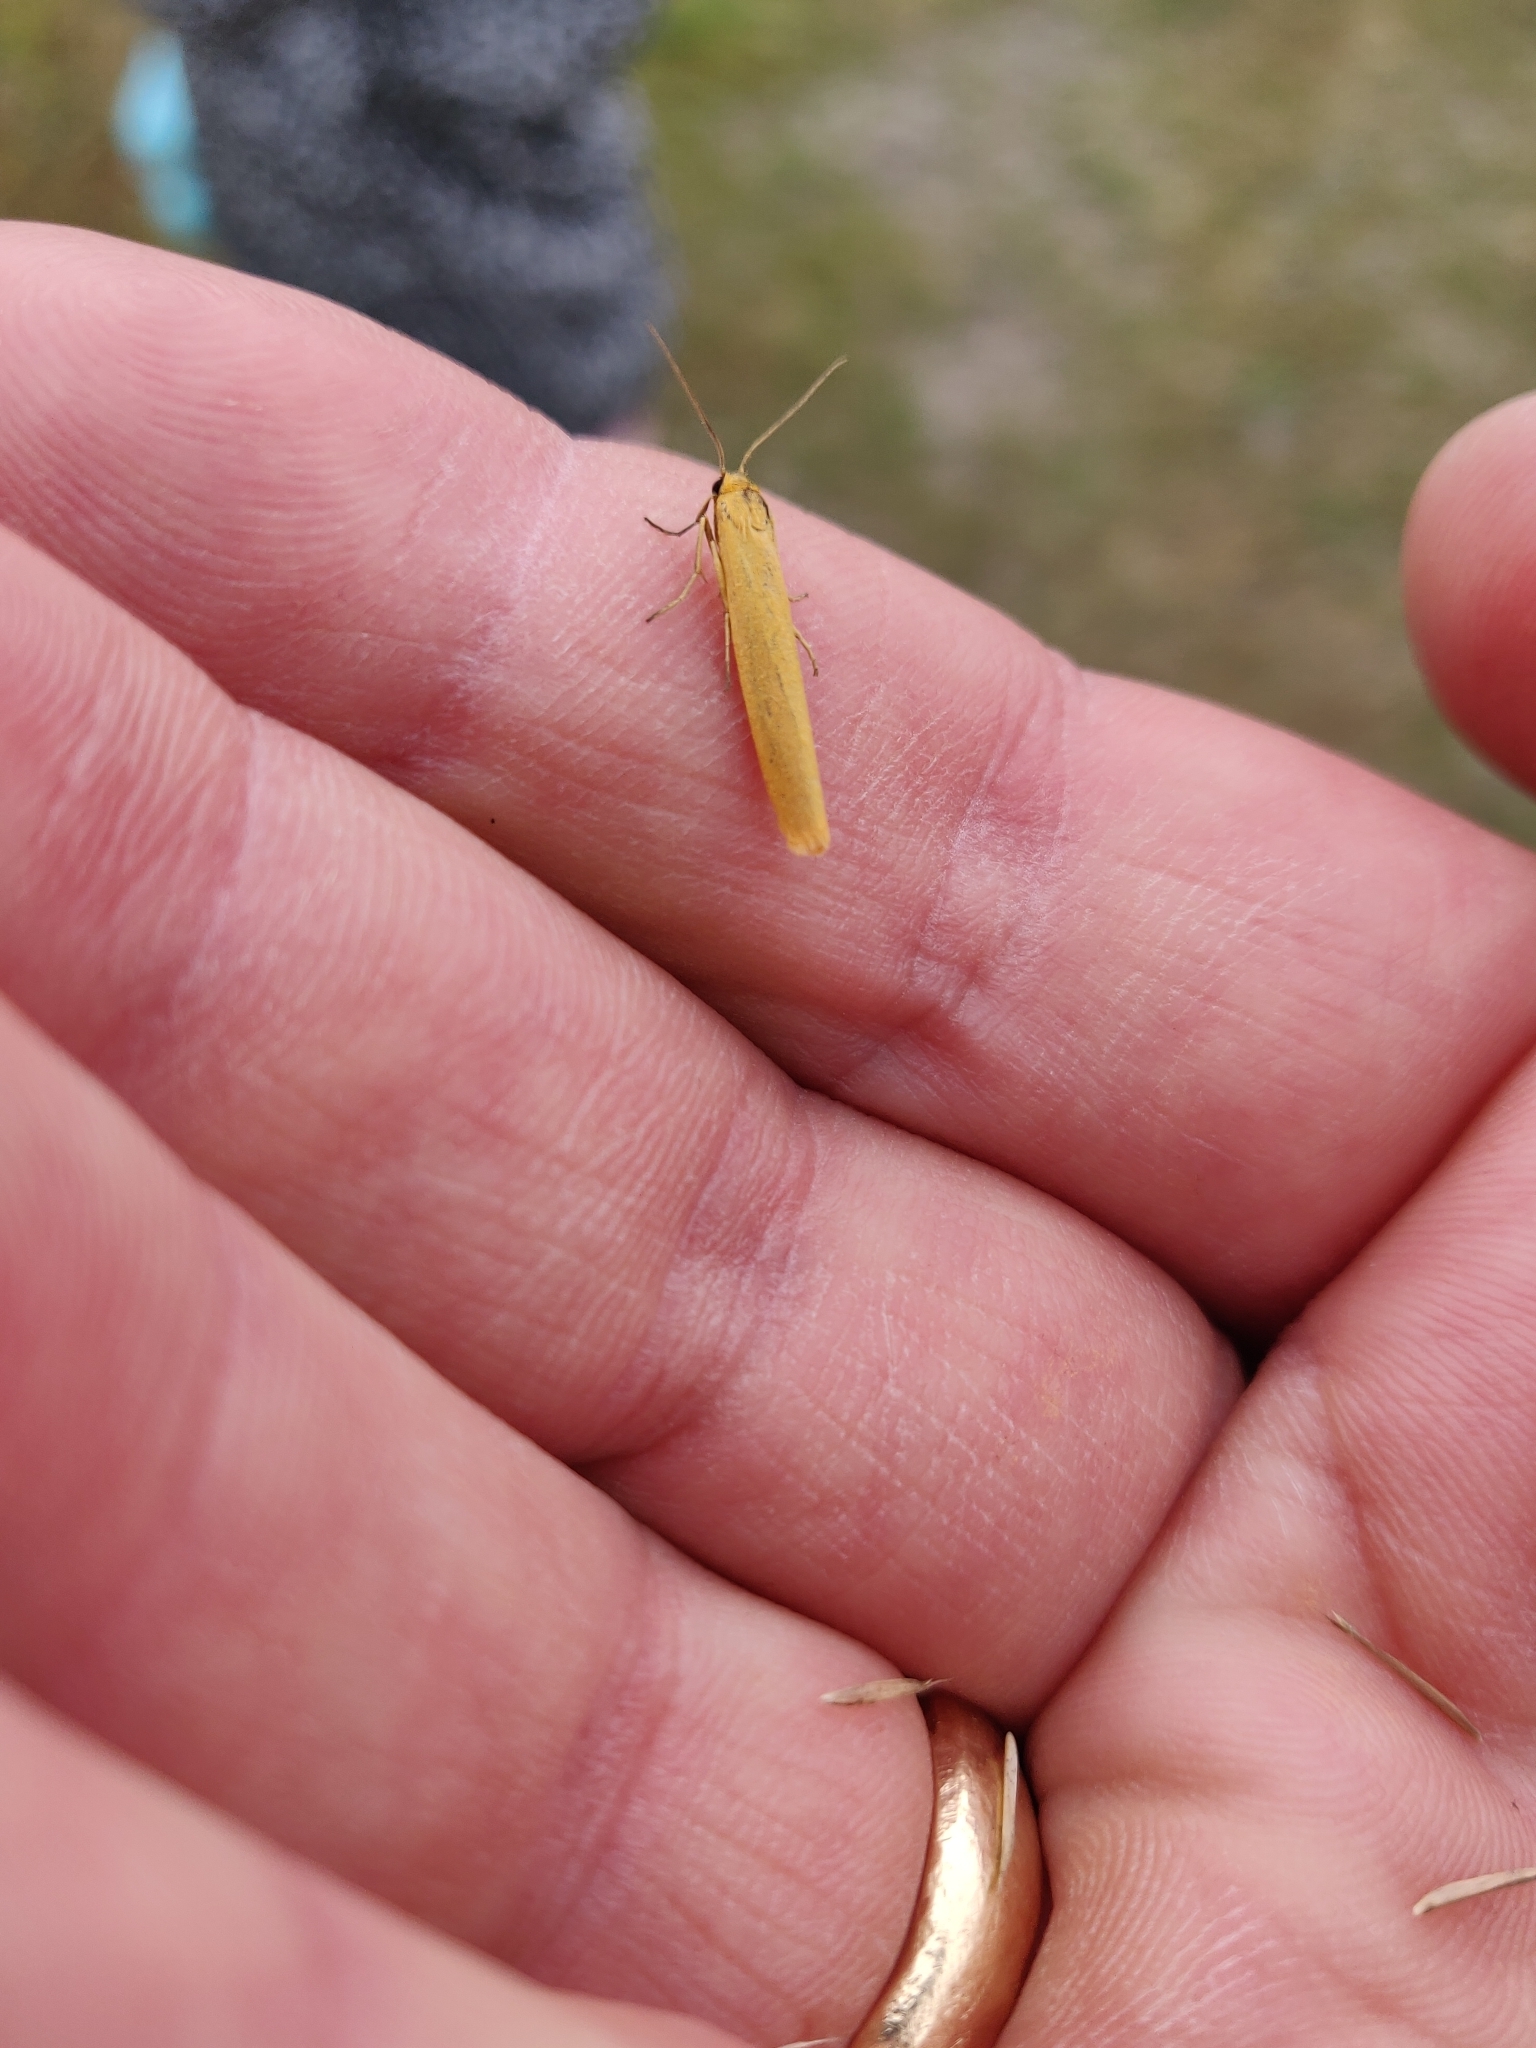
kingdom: Animalia
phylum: Arthropoda
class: Insecta
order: Lepidoptera
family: Erebidae
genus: Indalia
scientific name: Indalia lutarella
